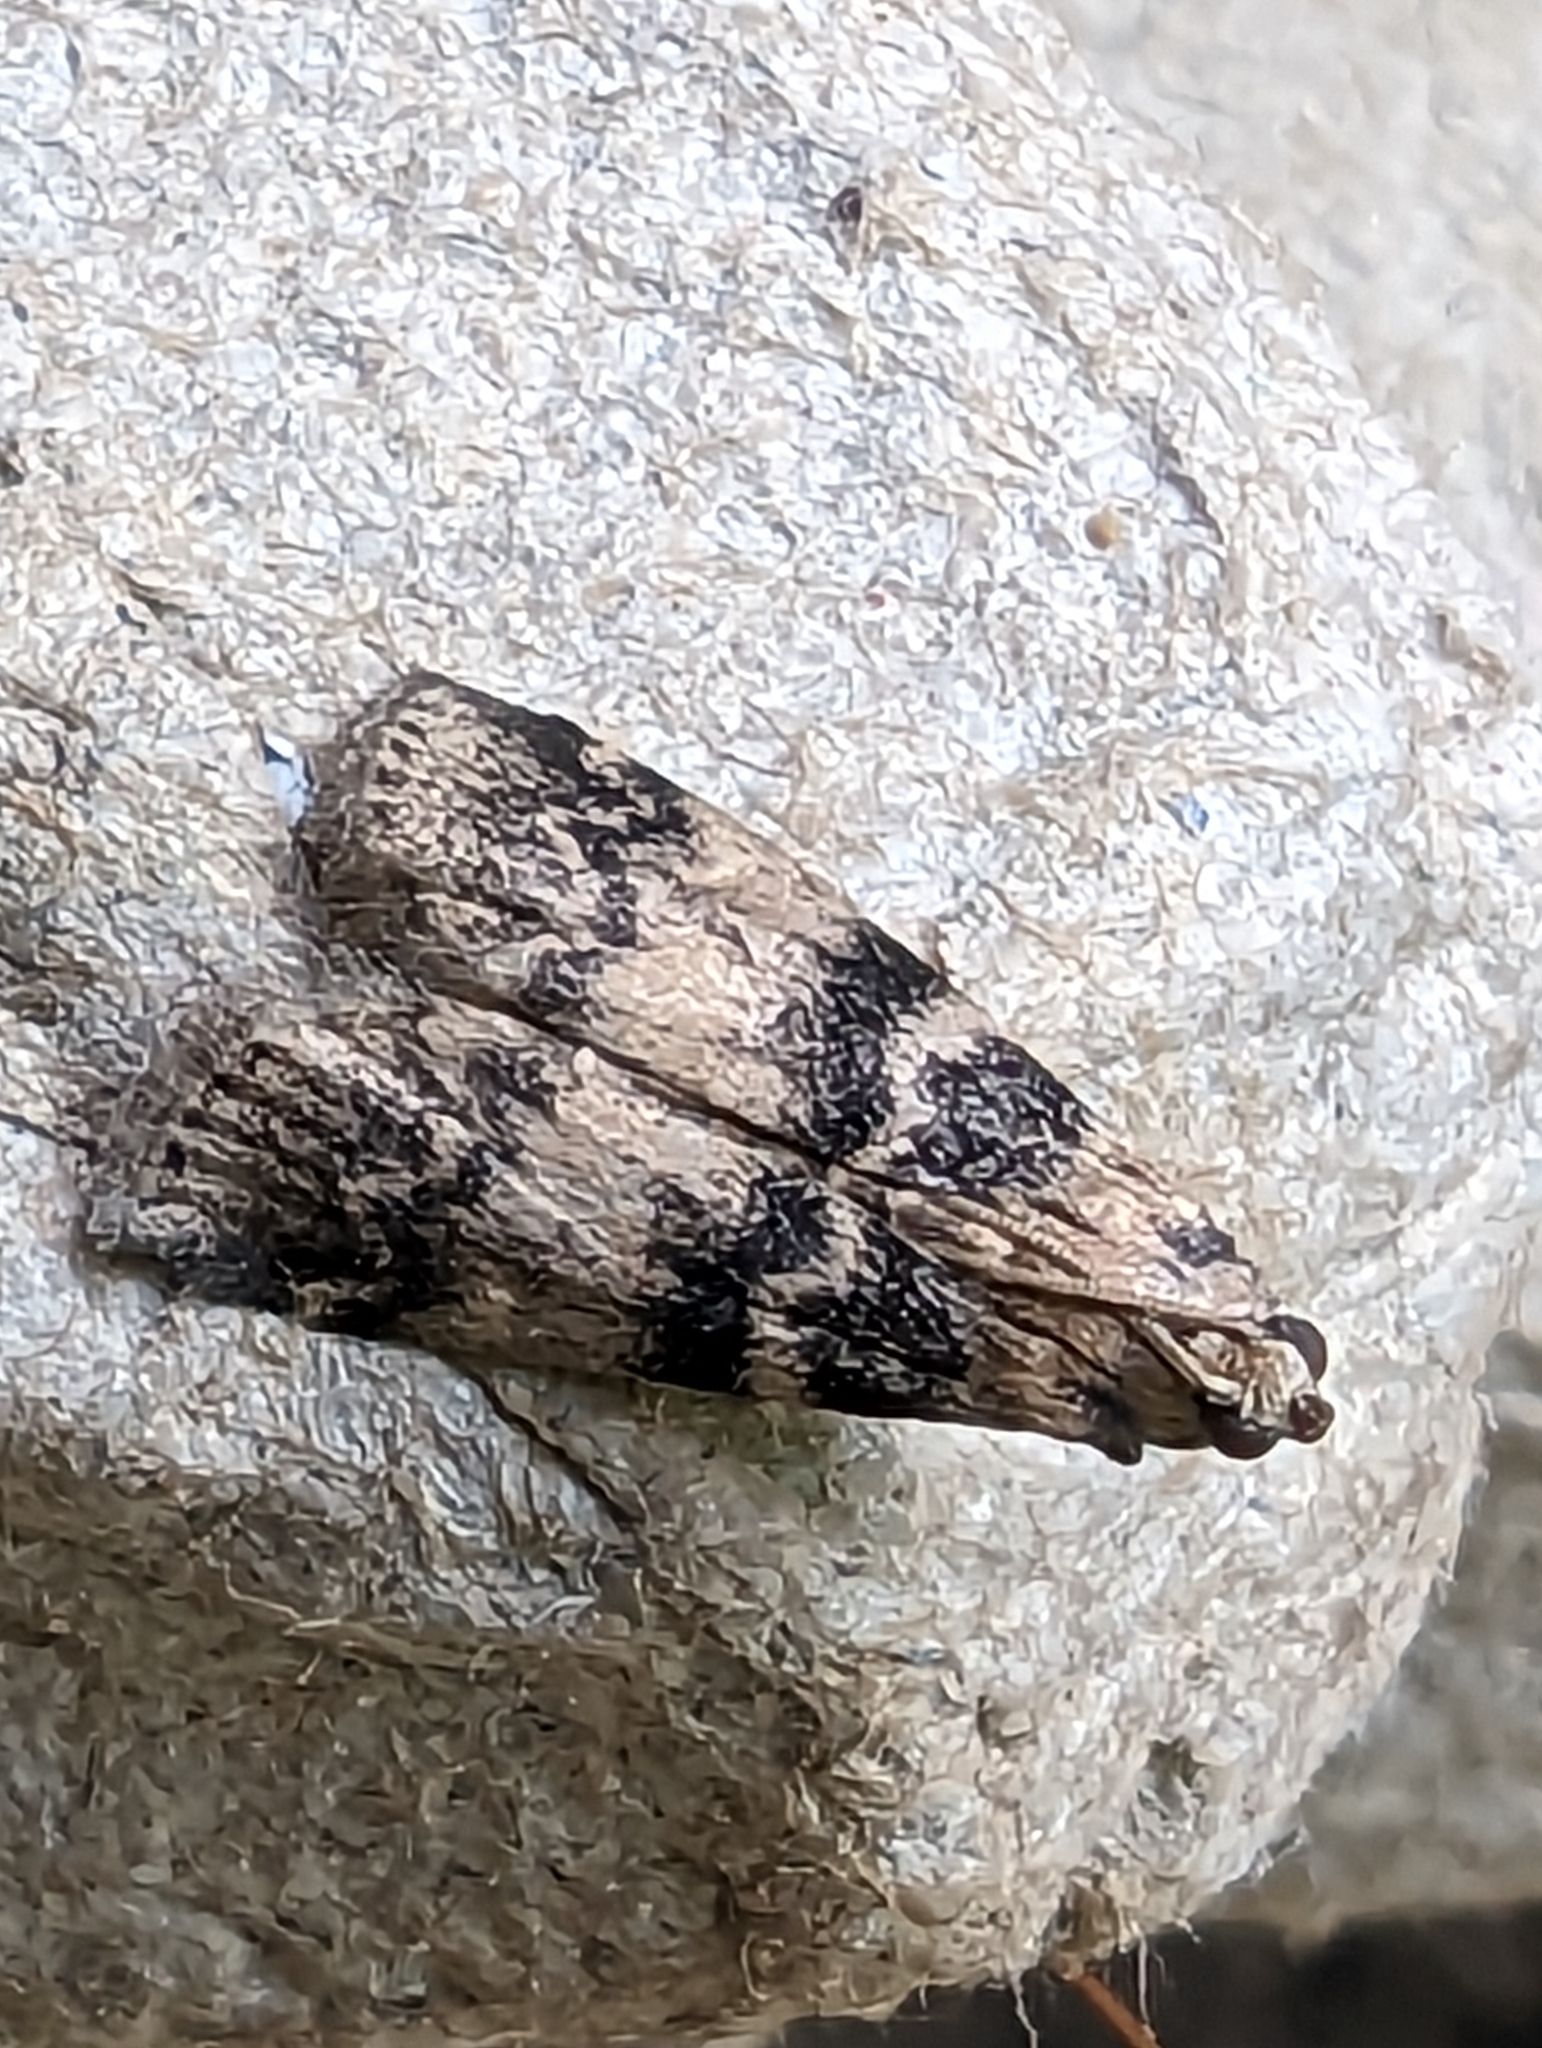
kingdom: Animalia
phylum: Arthropoda
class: Insecta
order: Lepidoptera
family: Pyralidae
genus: Euzophera
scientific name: Euzophera pinguis
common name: Ash-bark knot-horn
